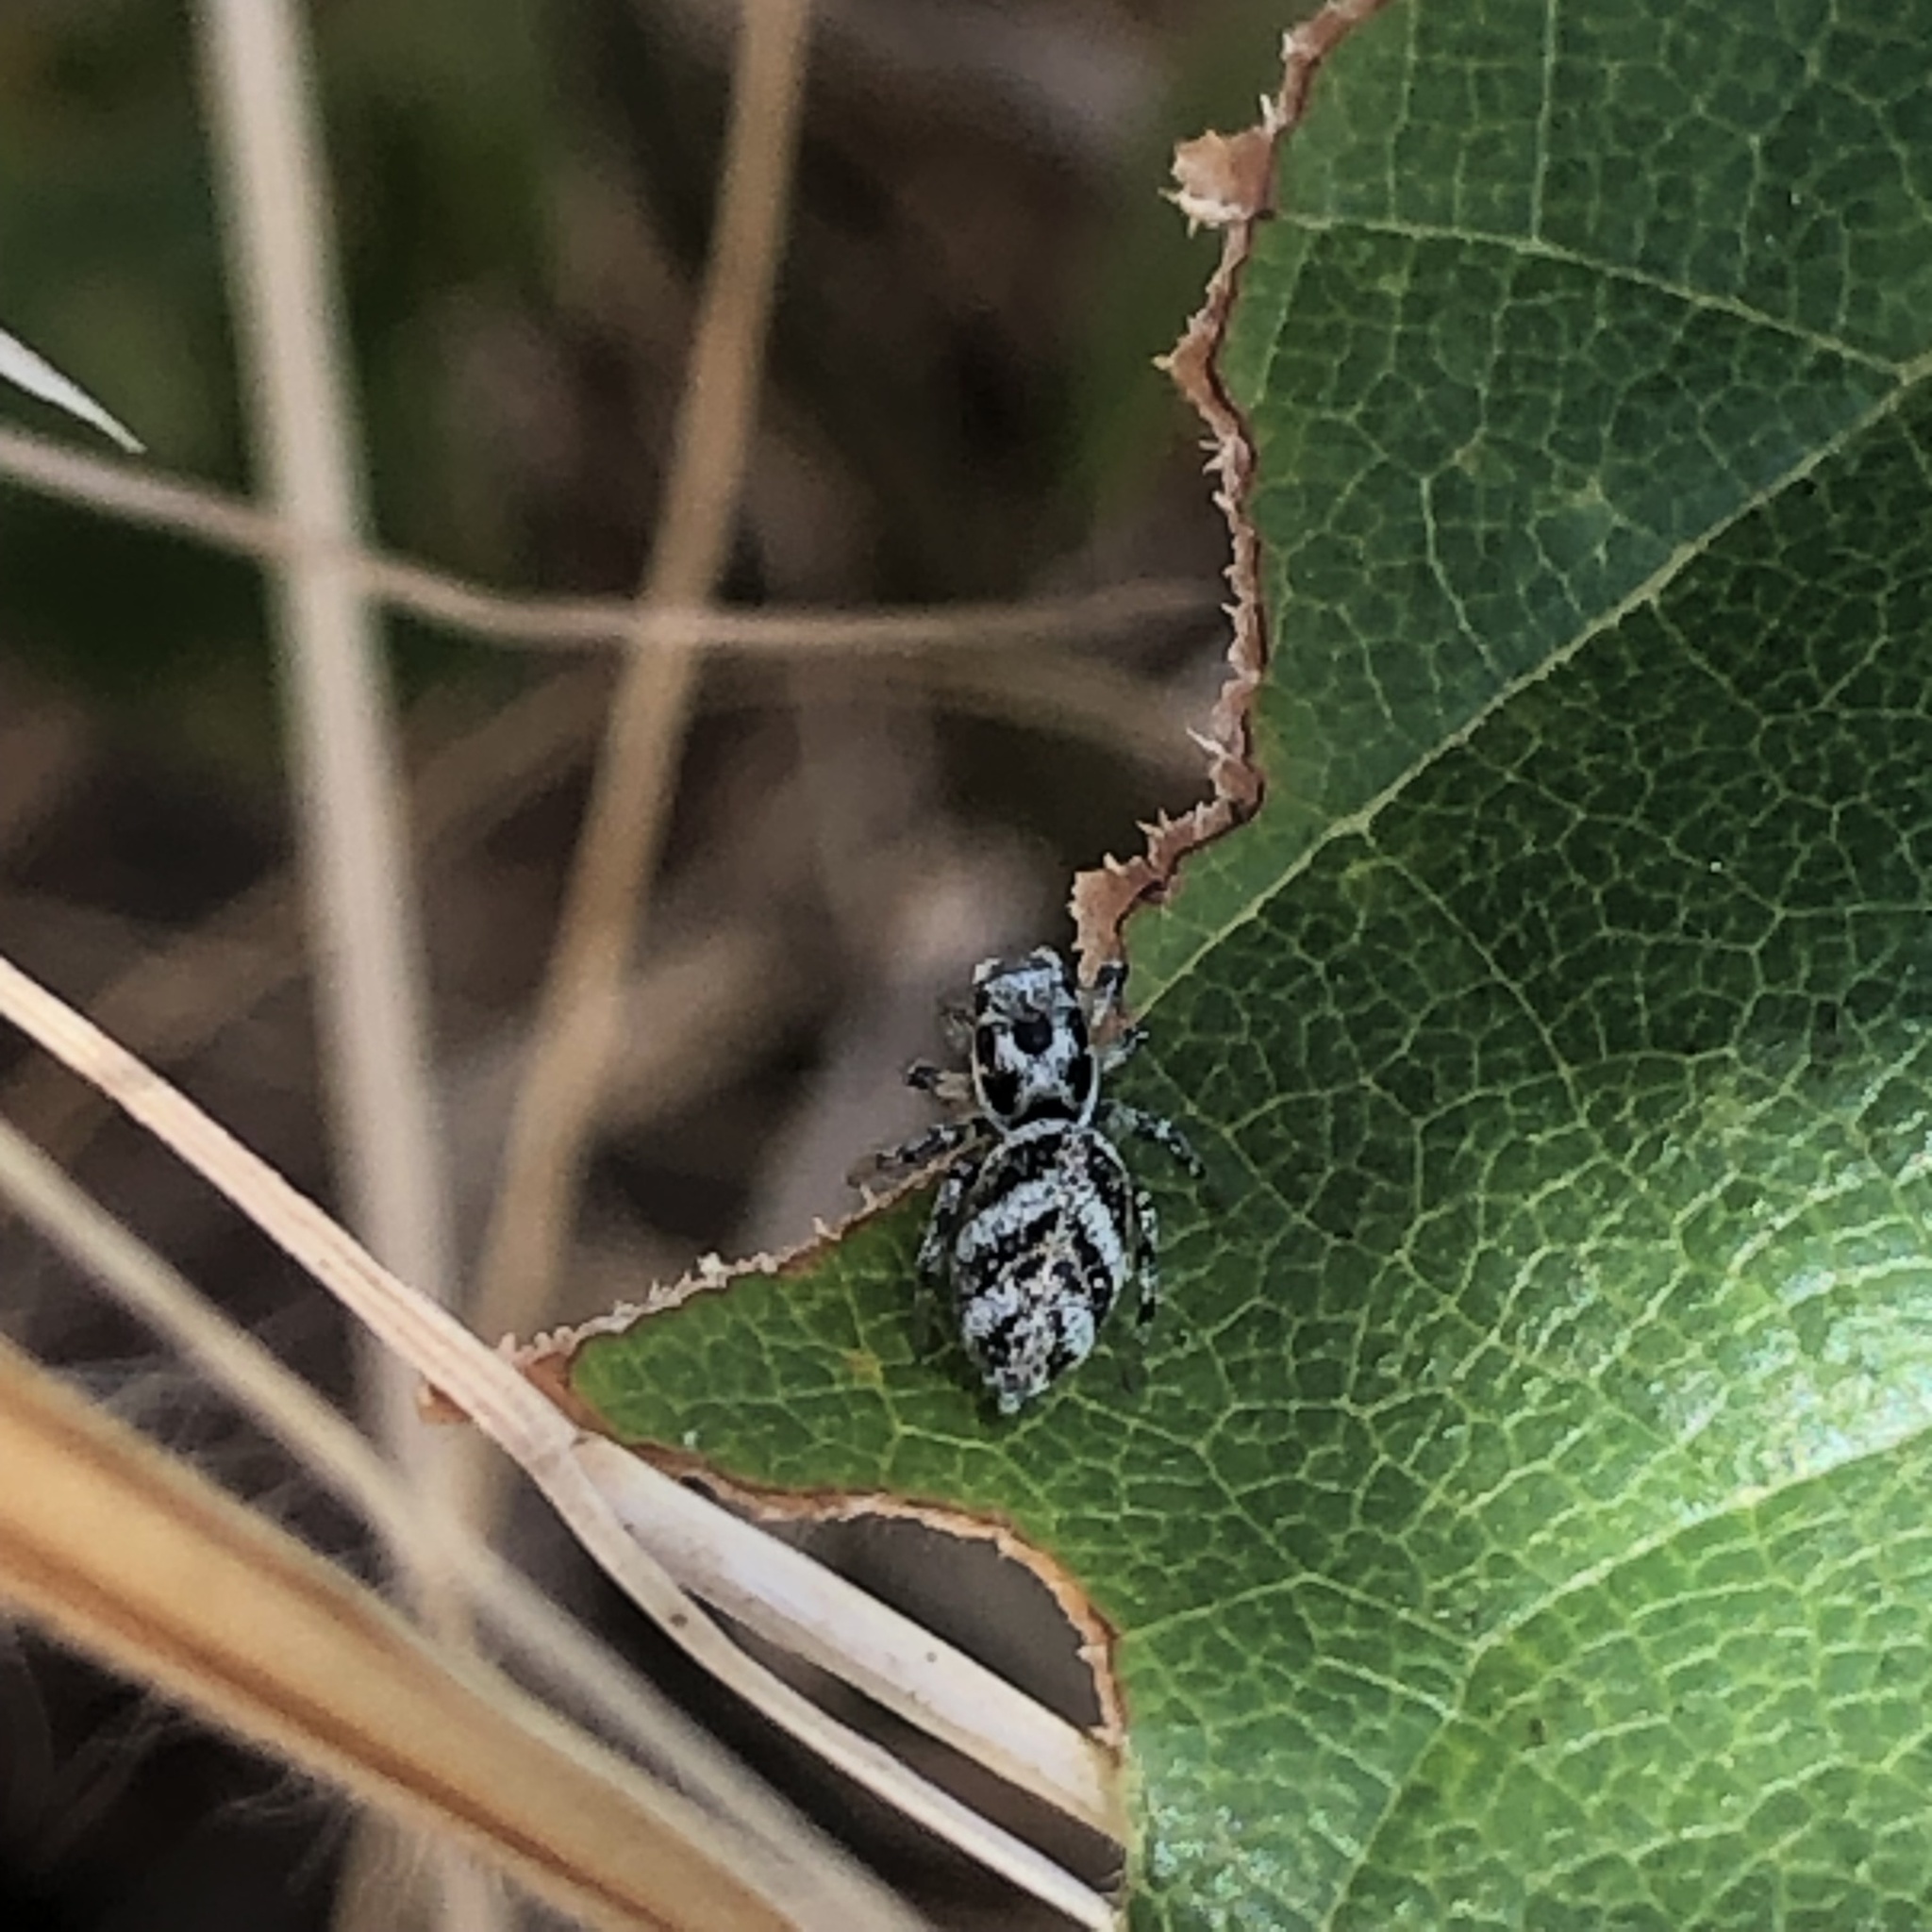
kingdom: Animalia
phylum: Arthropoda
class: Arachnida
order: Araneae
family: Salticidae
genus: Salticus
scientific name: Salticus scenicus
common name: Zebra jumper
